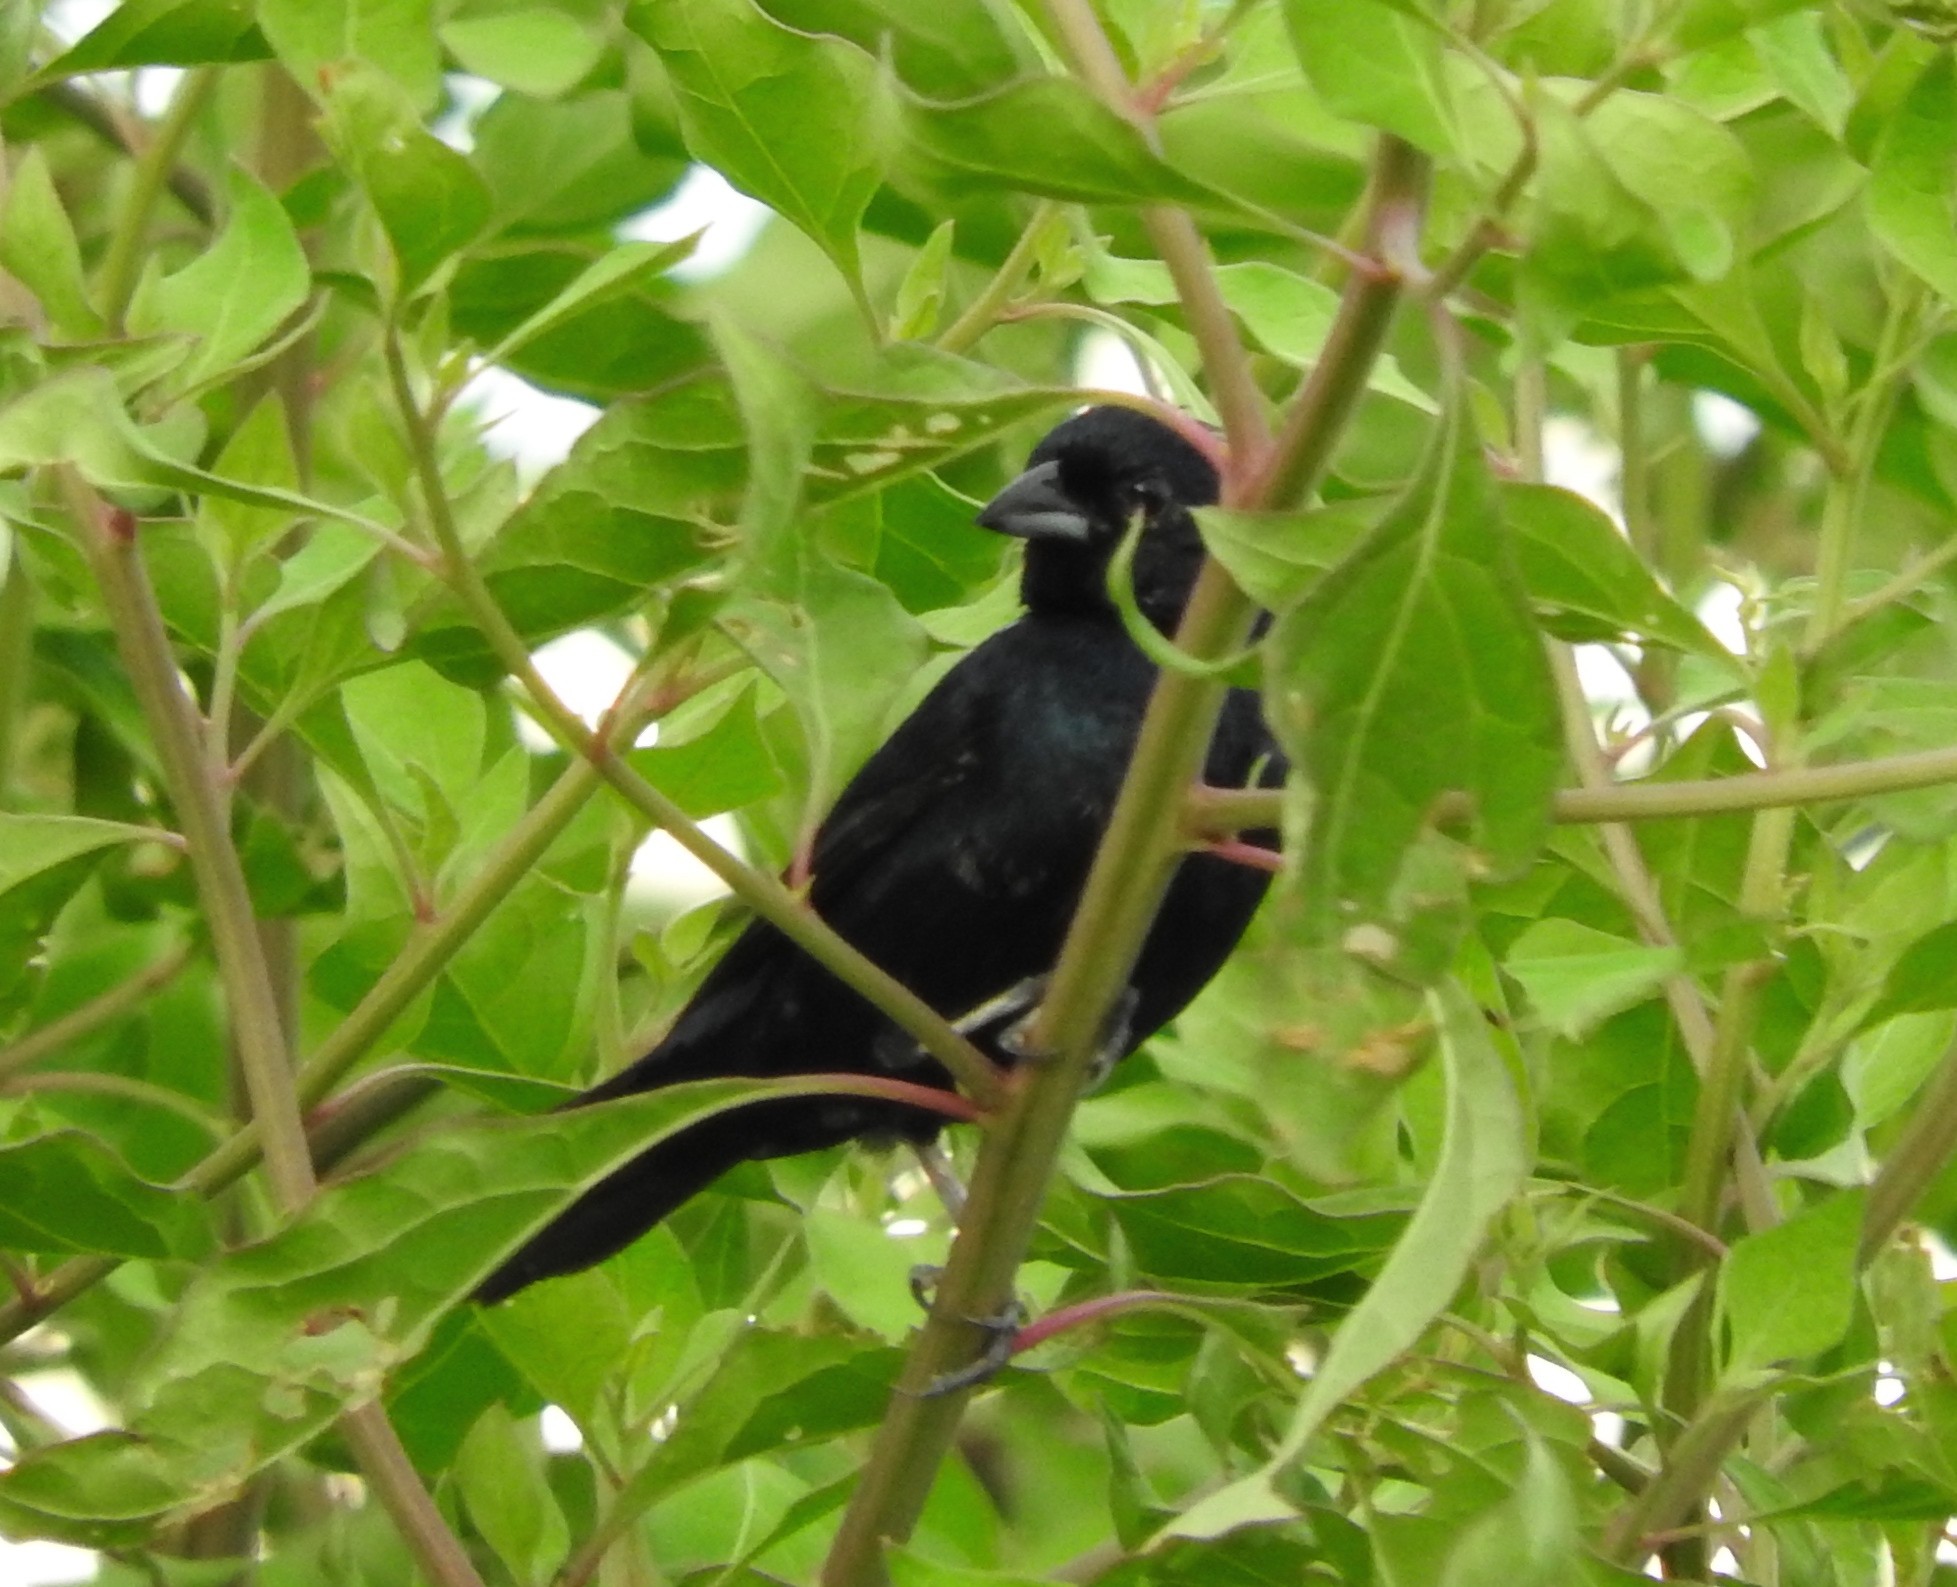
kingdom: Animalia
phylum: Chordata
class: Aves
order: Passeriformes
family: Thraupidae
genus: Volatinia
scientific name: Volatinia jacarina
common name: Blue-black grassquit
